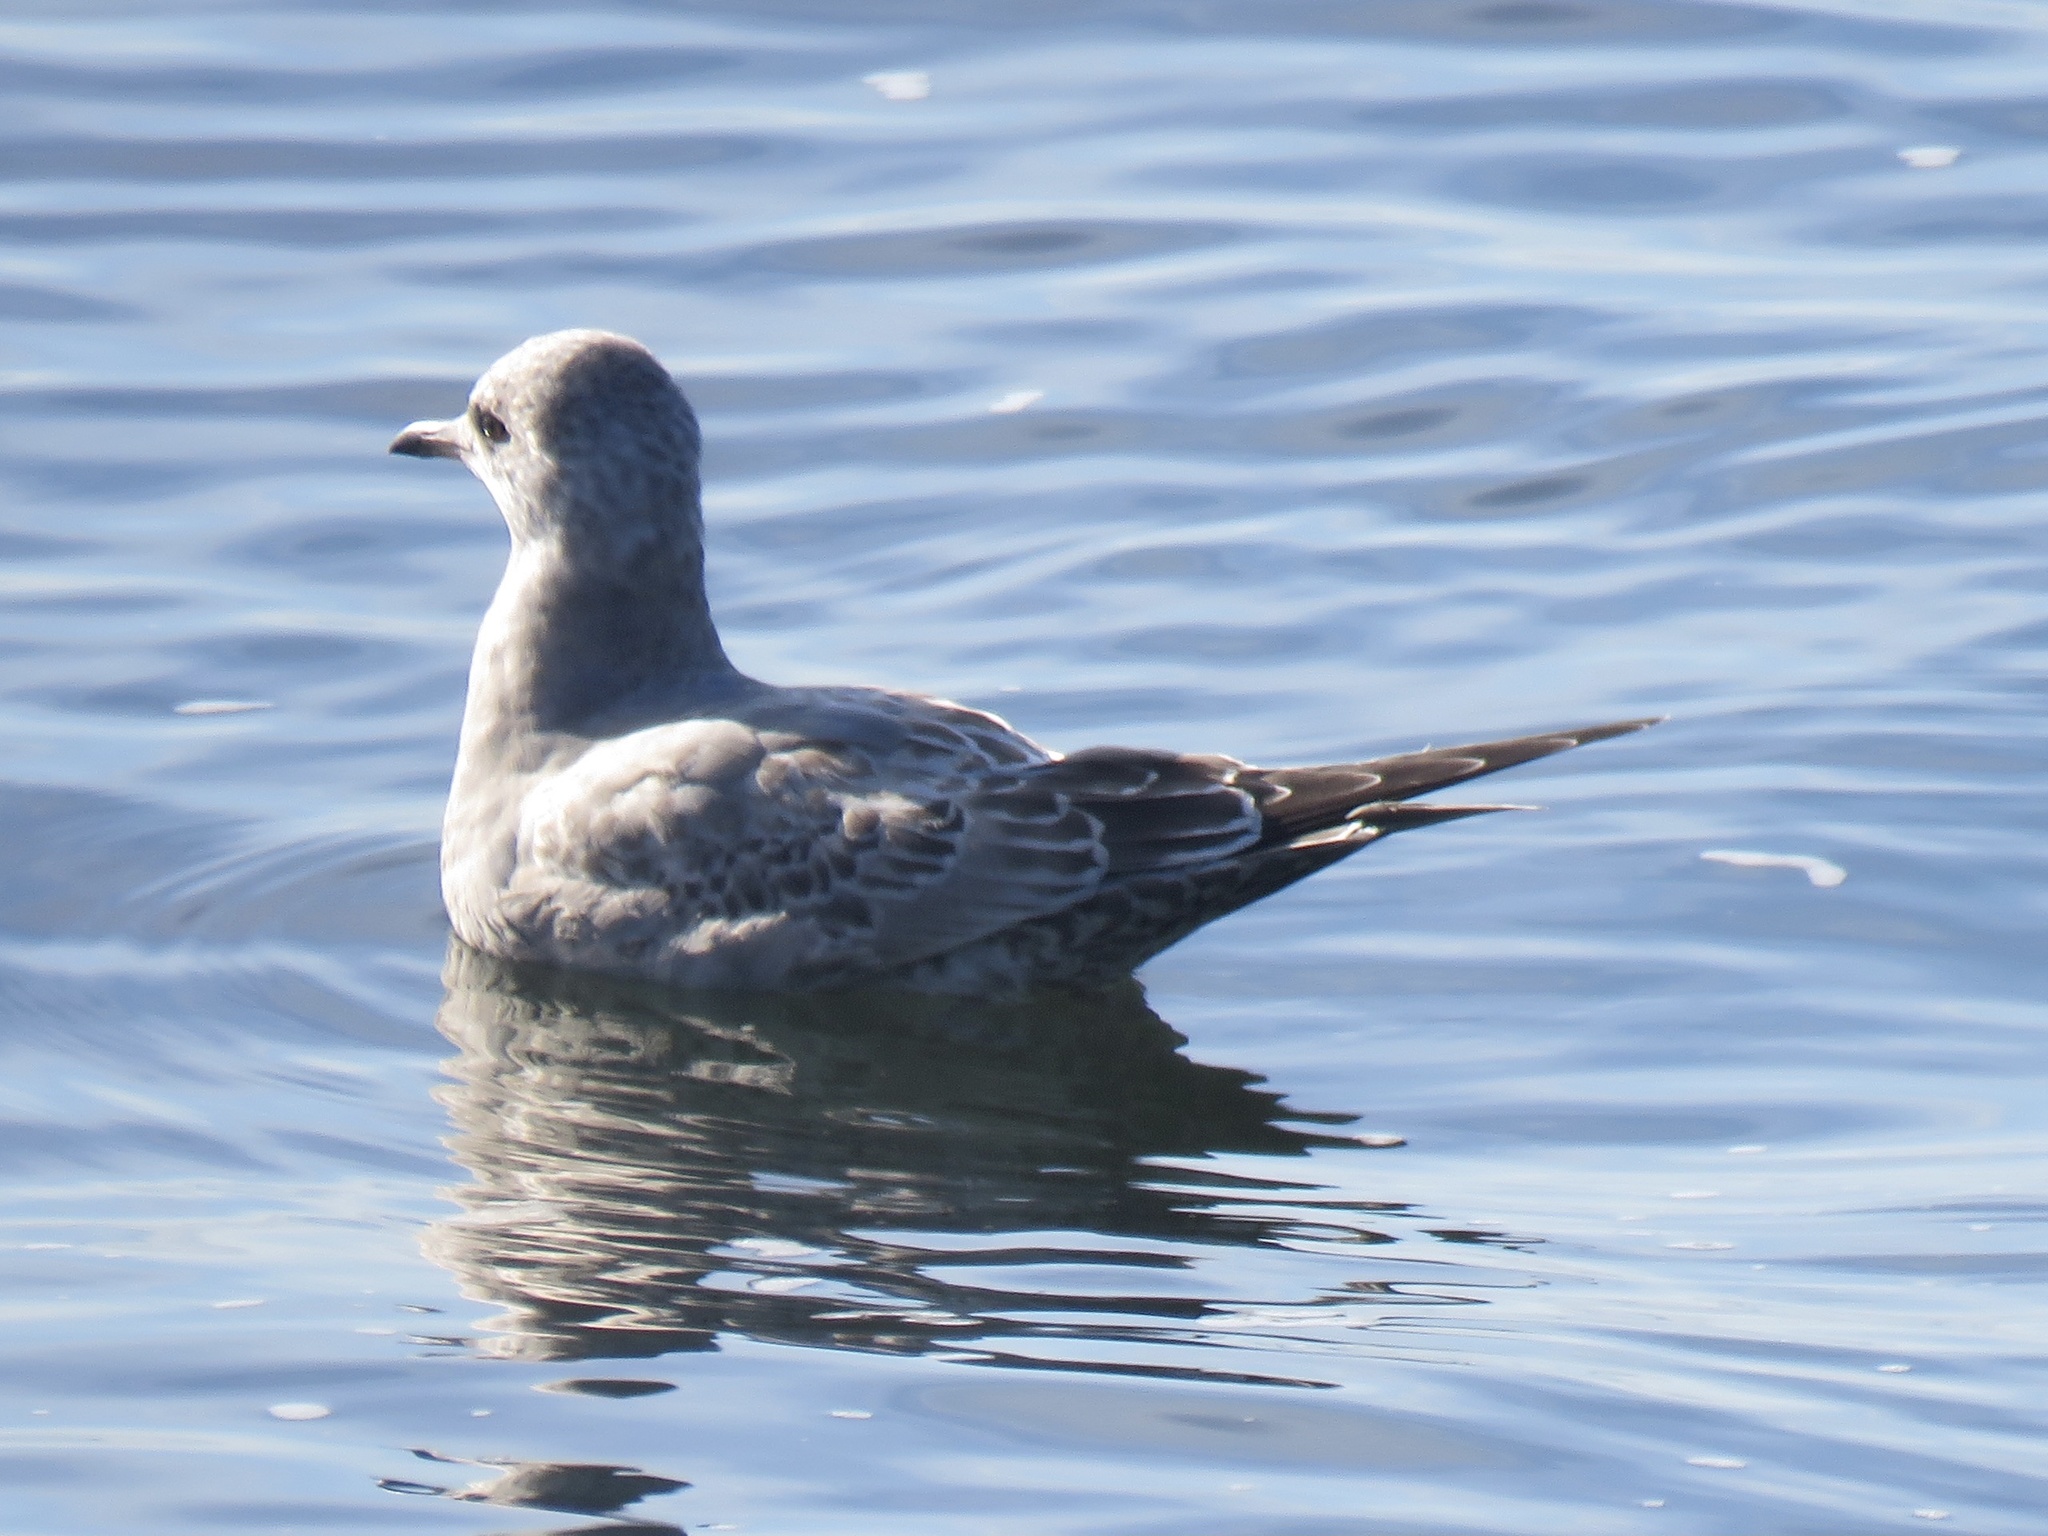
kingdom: Animalia
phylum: Chordata
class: Aves
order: Charadriiformes
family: Laridae
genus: Larus
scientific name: Larus brachyrhynchus
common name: Short-billed gull
